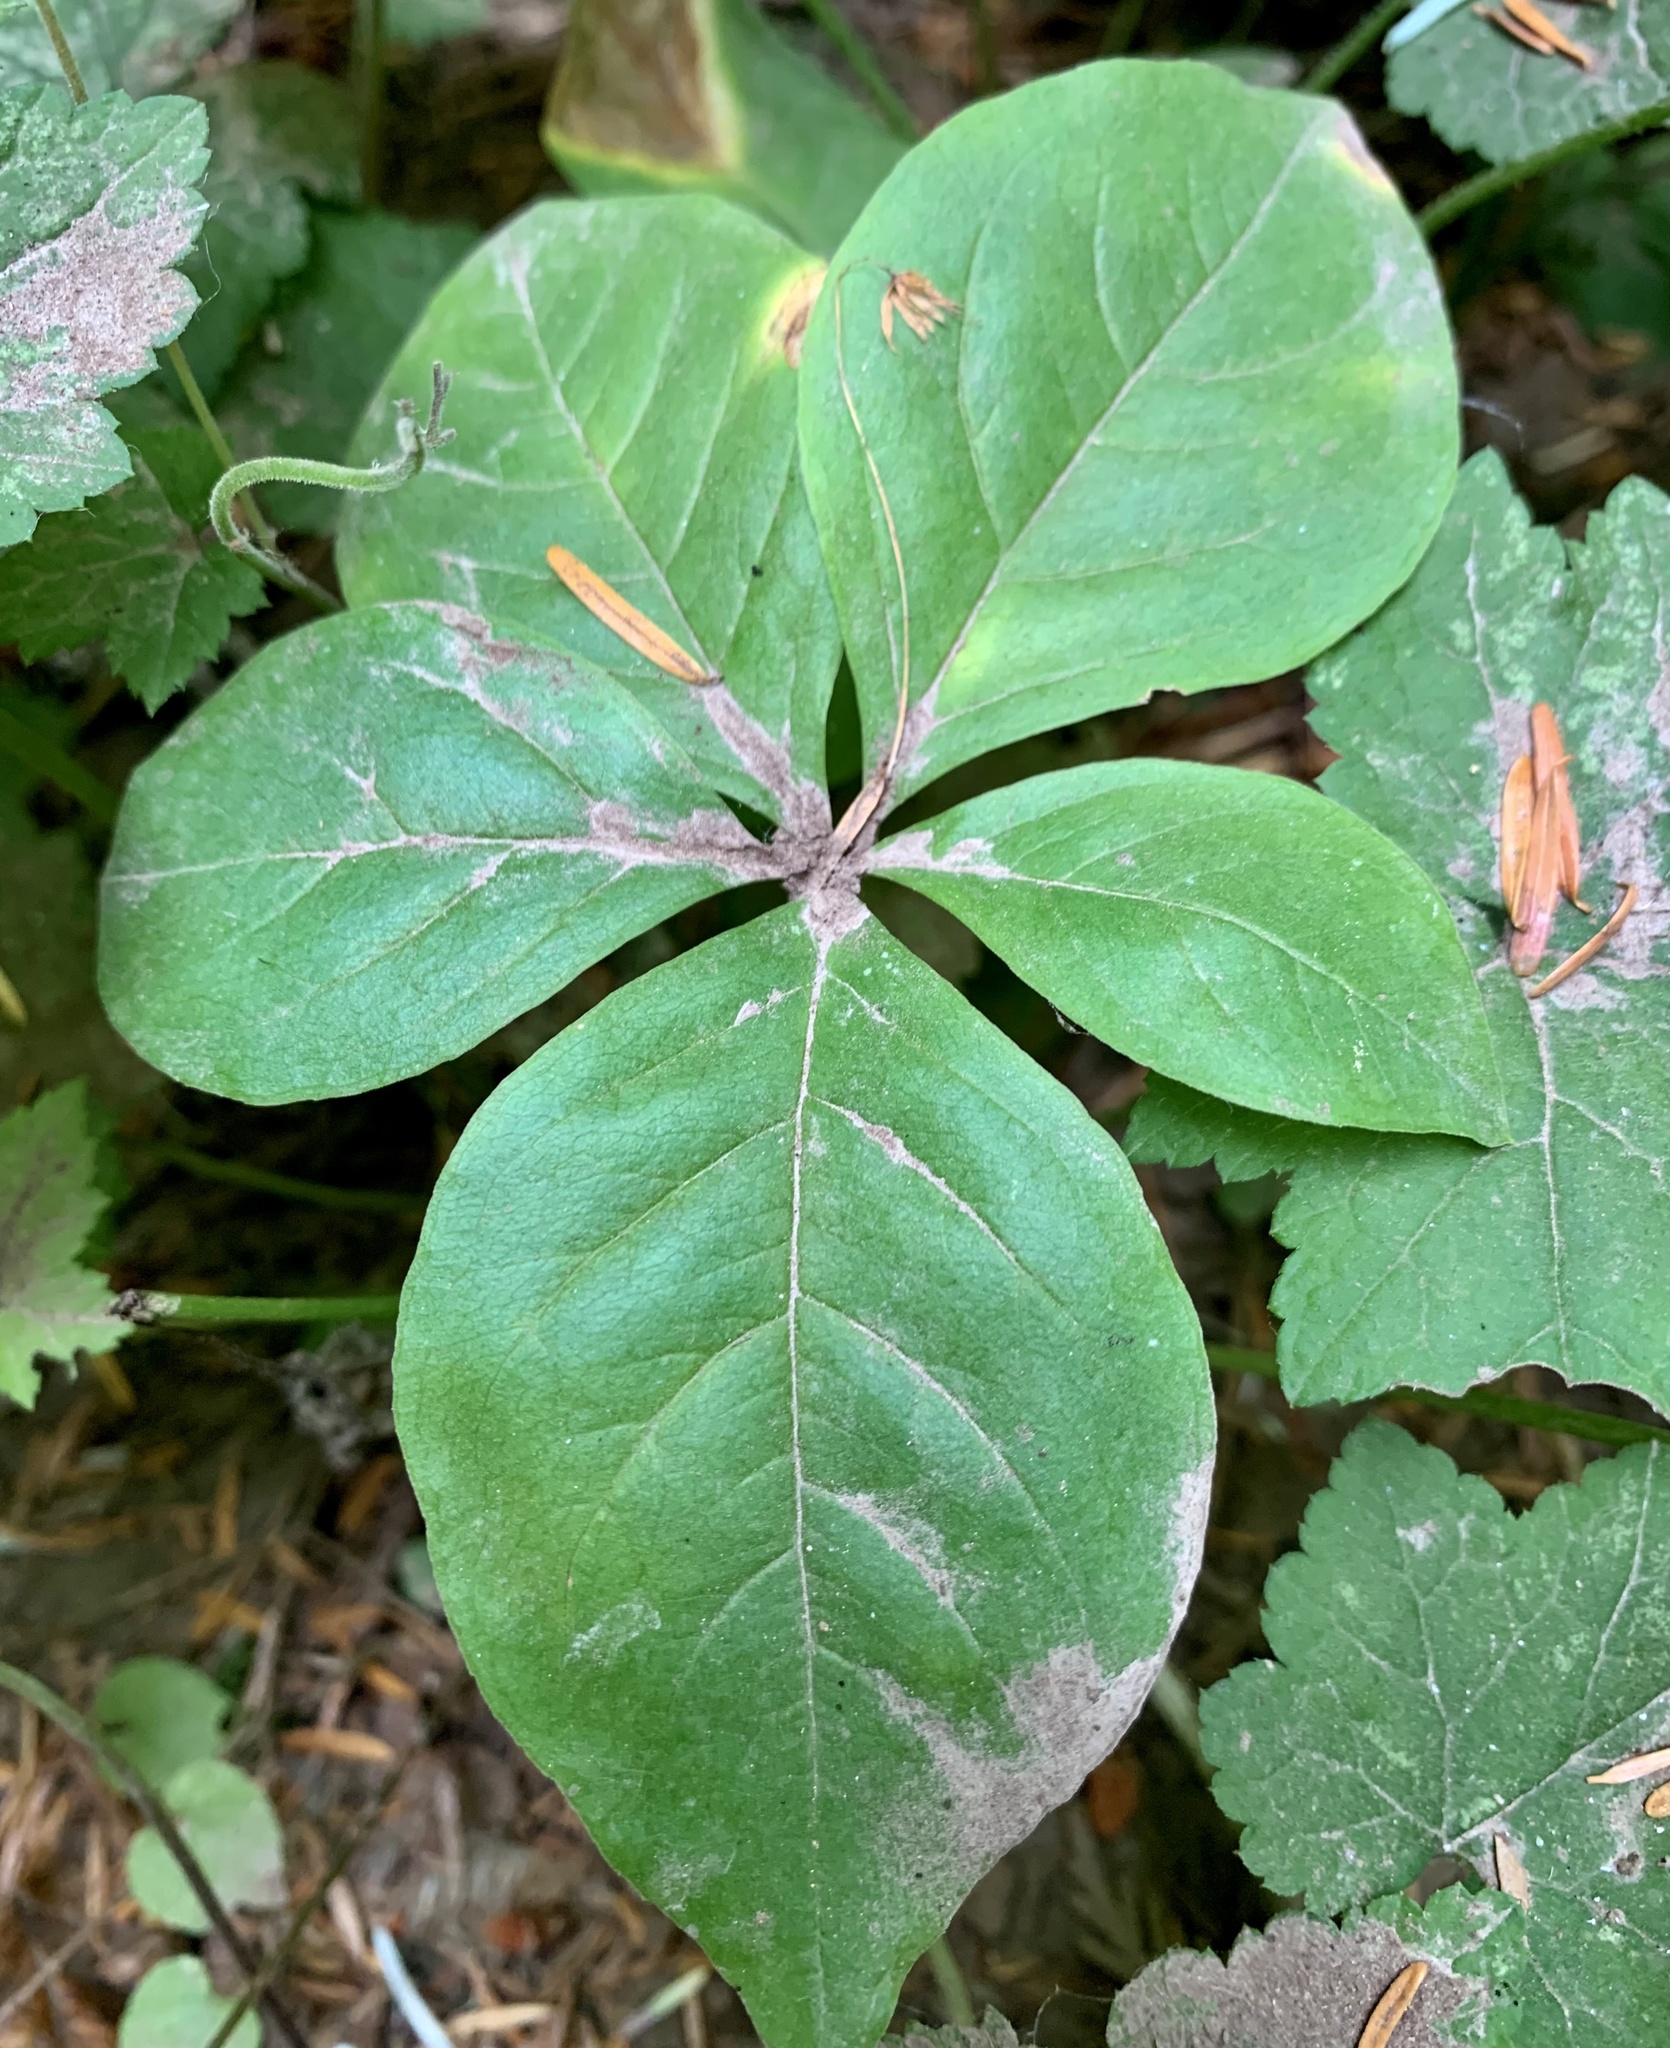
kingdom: Plantae
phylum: Tracheophyta
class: Magnoliopsida
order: Ericales
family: Primulaceae
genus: Lysimachia
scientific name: Lysimachia latifolia
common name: Pacific starflower
